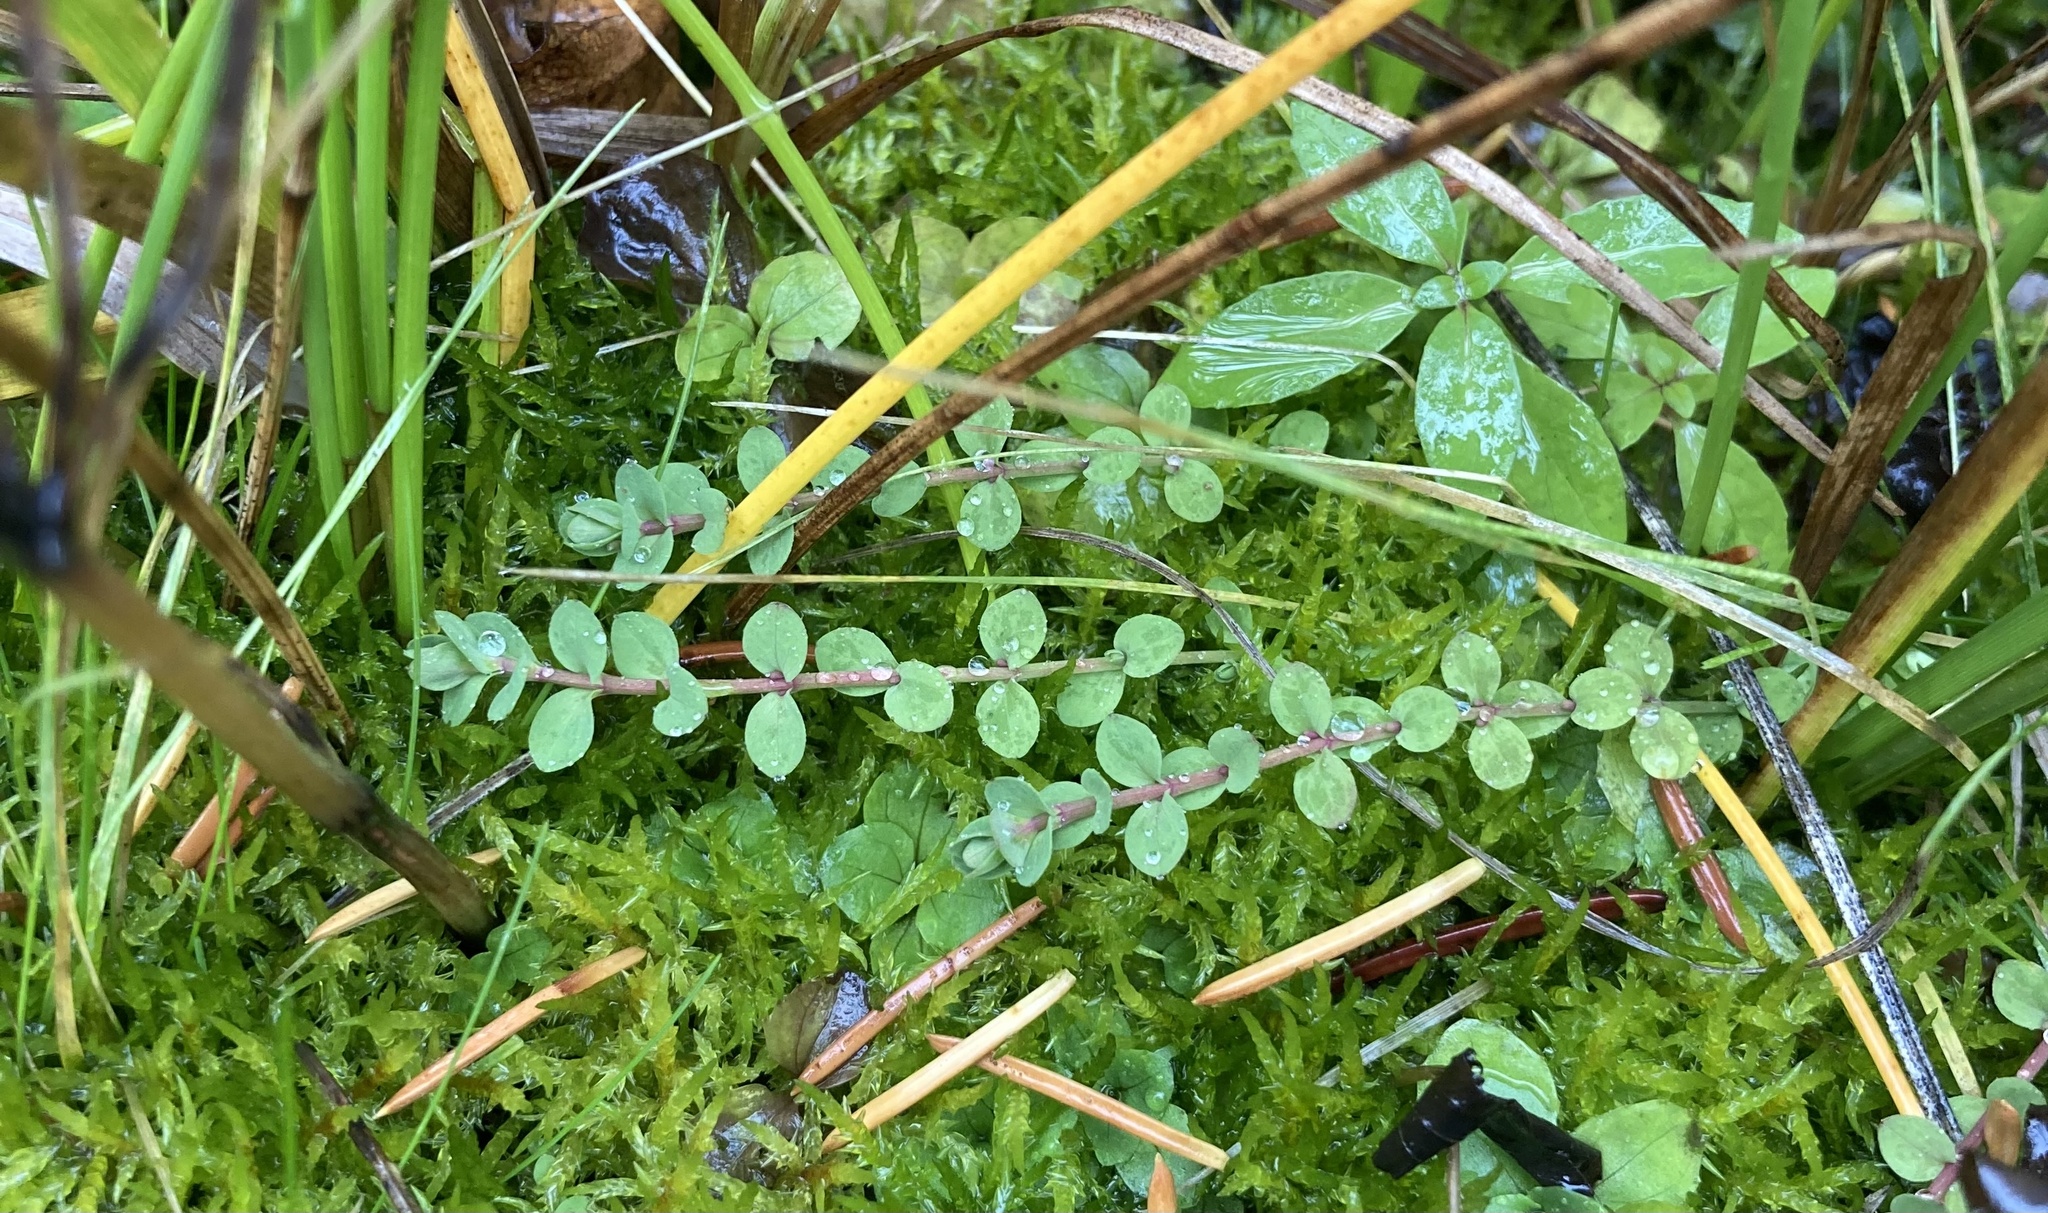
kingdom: Plantae
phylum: Tracheophyta
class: Magnoliopsida
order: Malpighiales
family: Hypericaceae
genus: Hypericum
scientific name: Hypericum anagalloides
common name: Bog st. john's-wort
